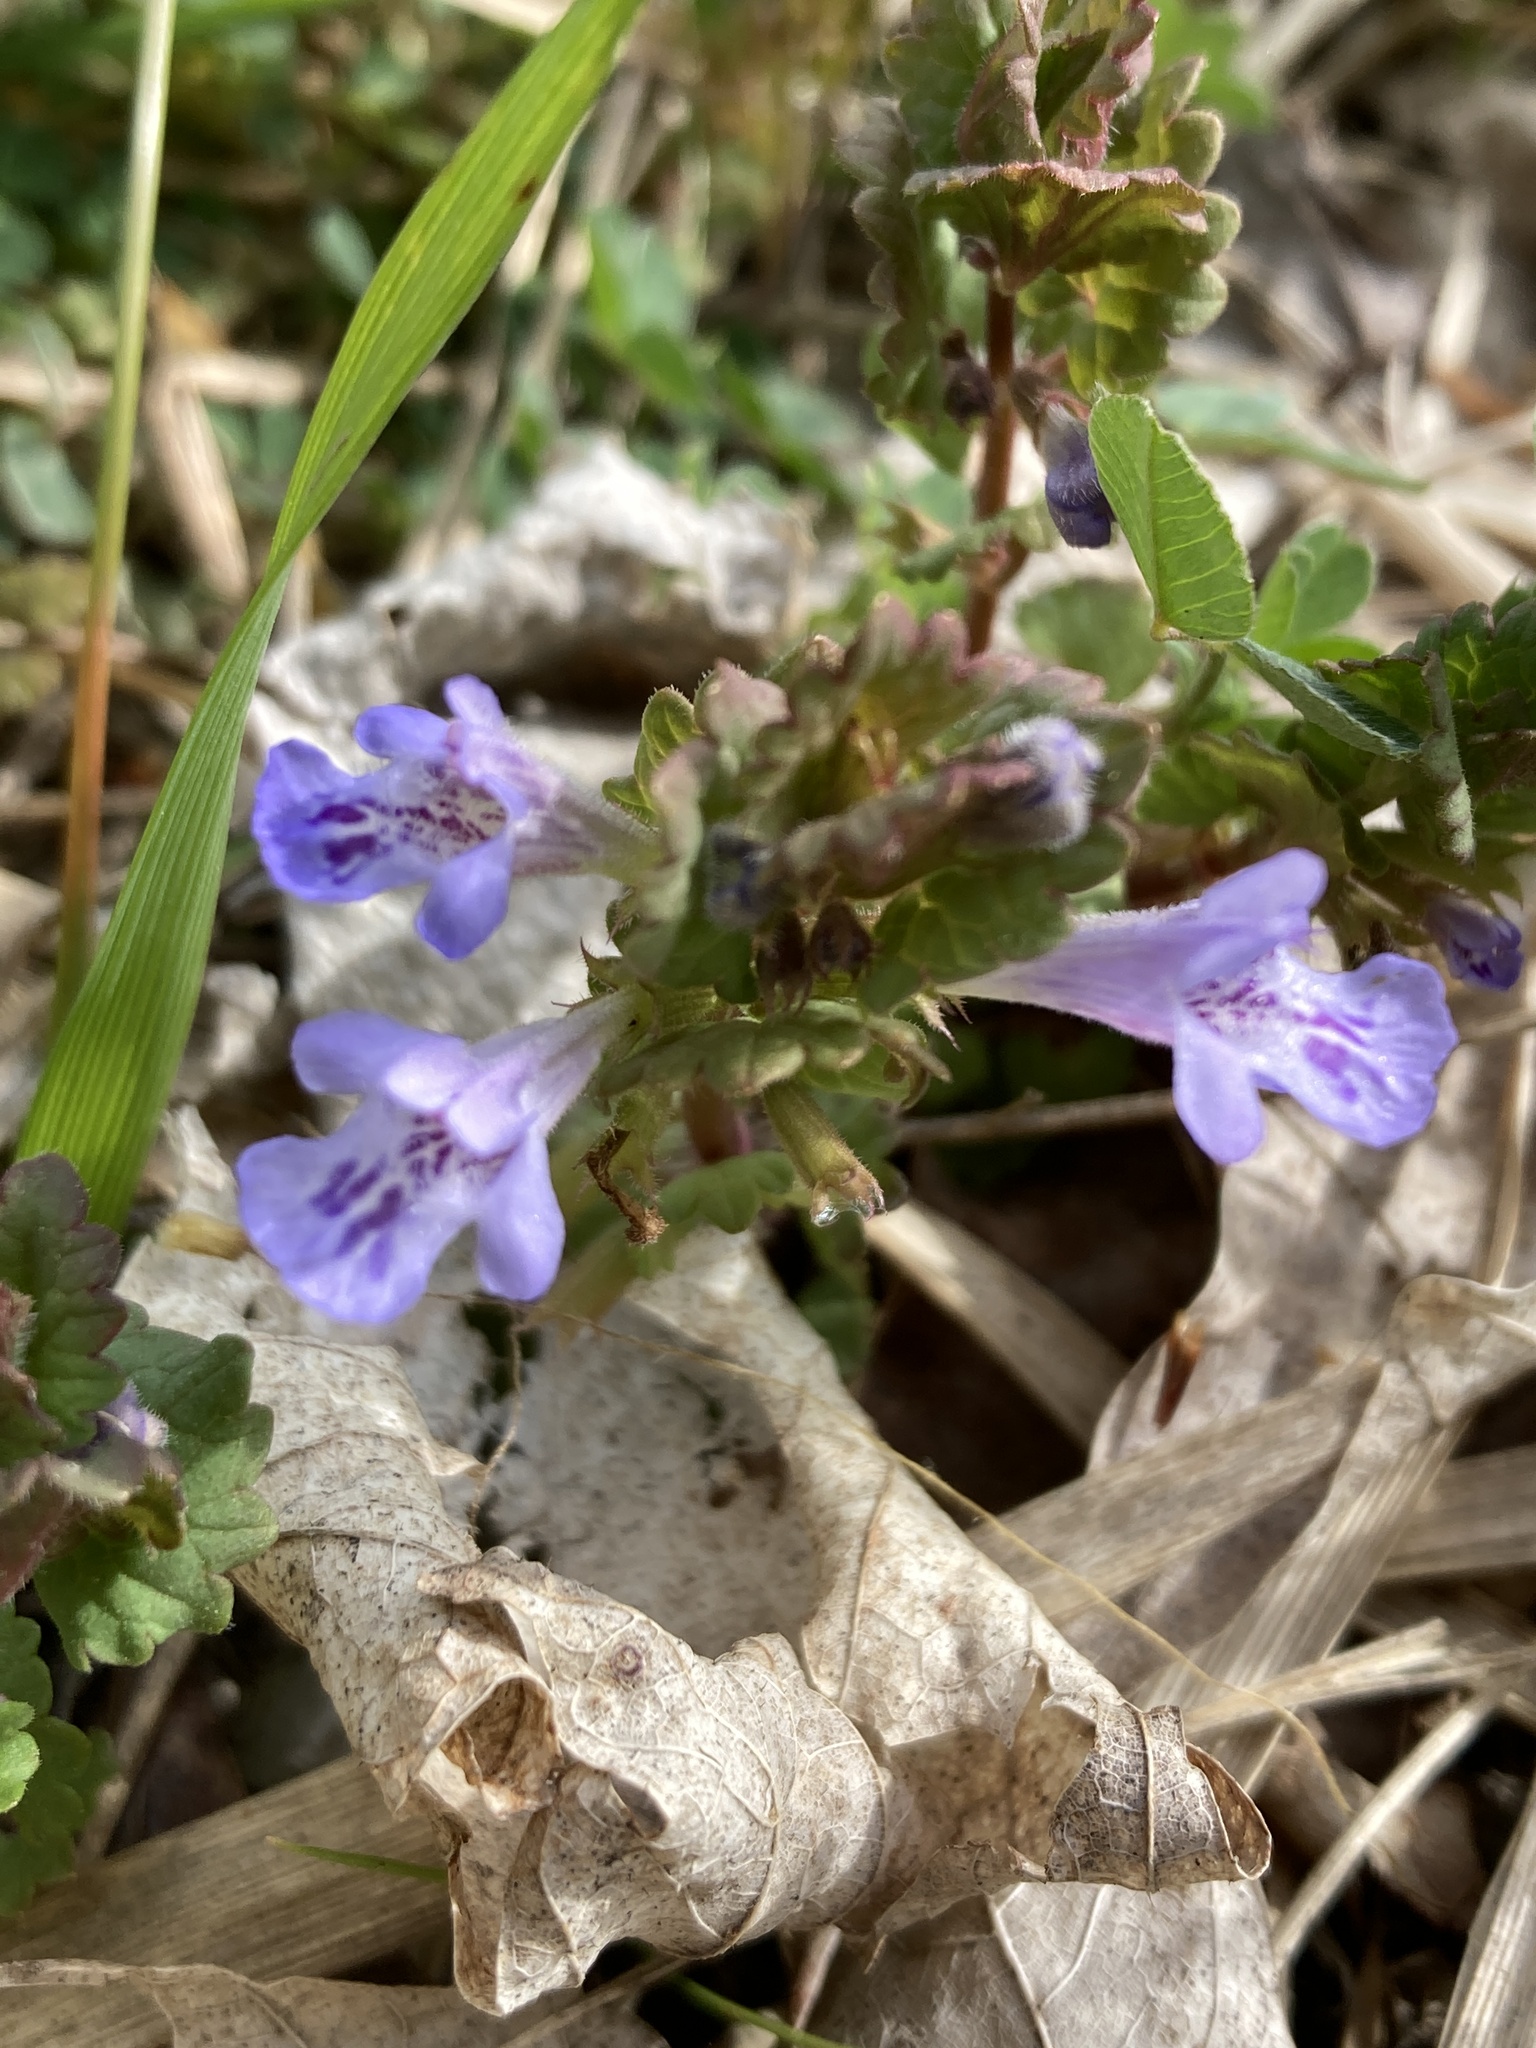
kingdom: Plantae
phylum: Tracheophyta
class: Magnoliopsida
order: Lamiales
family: Lamiaceae
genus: Glechoma
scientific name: Glechoma hederacea
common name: Ground ivy
